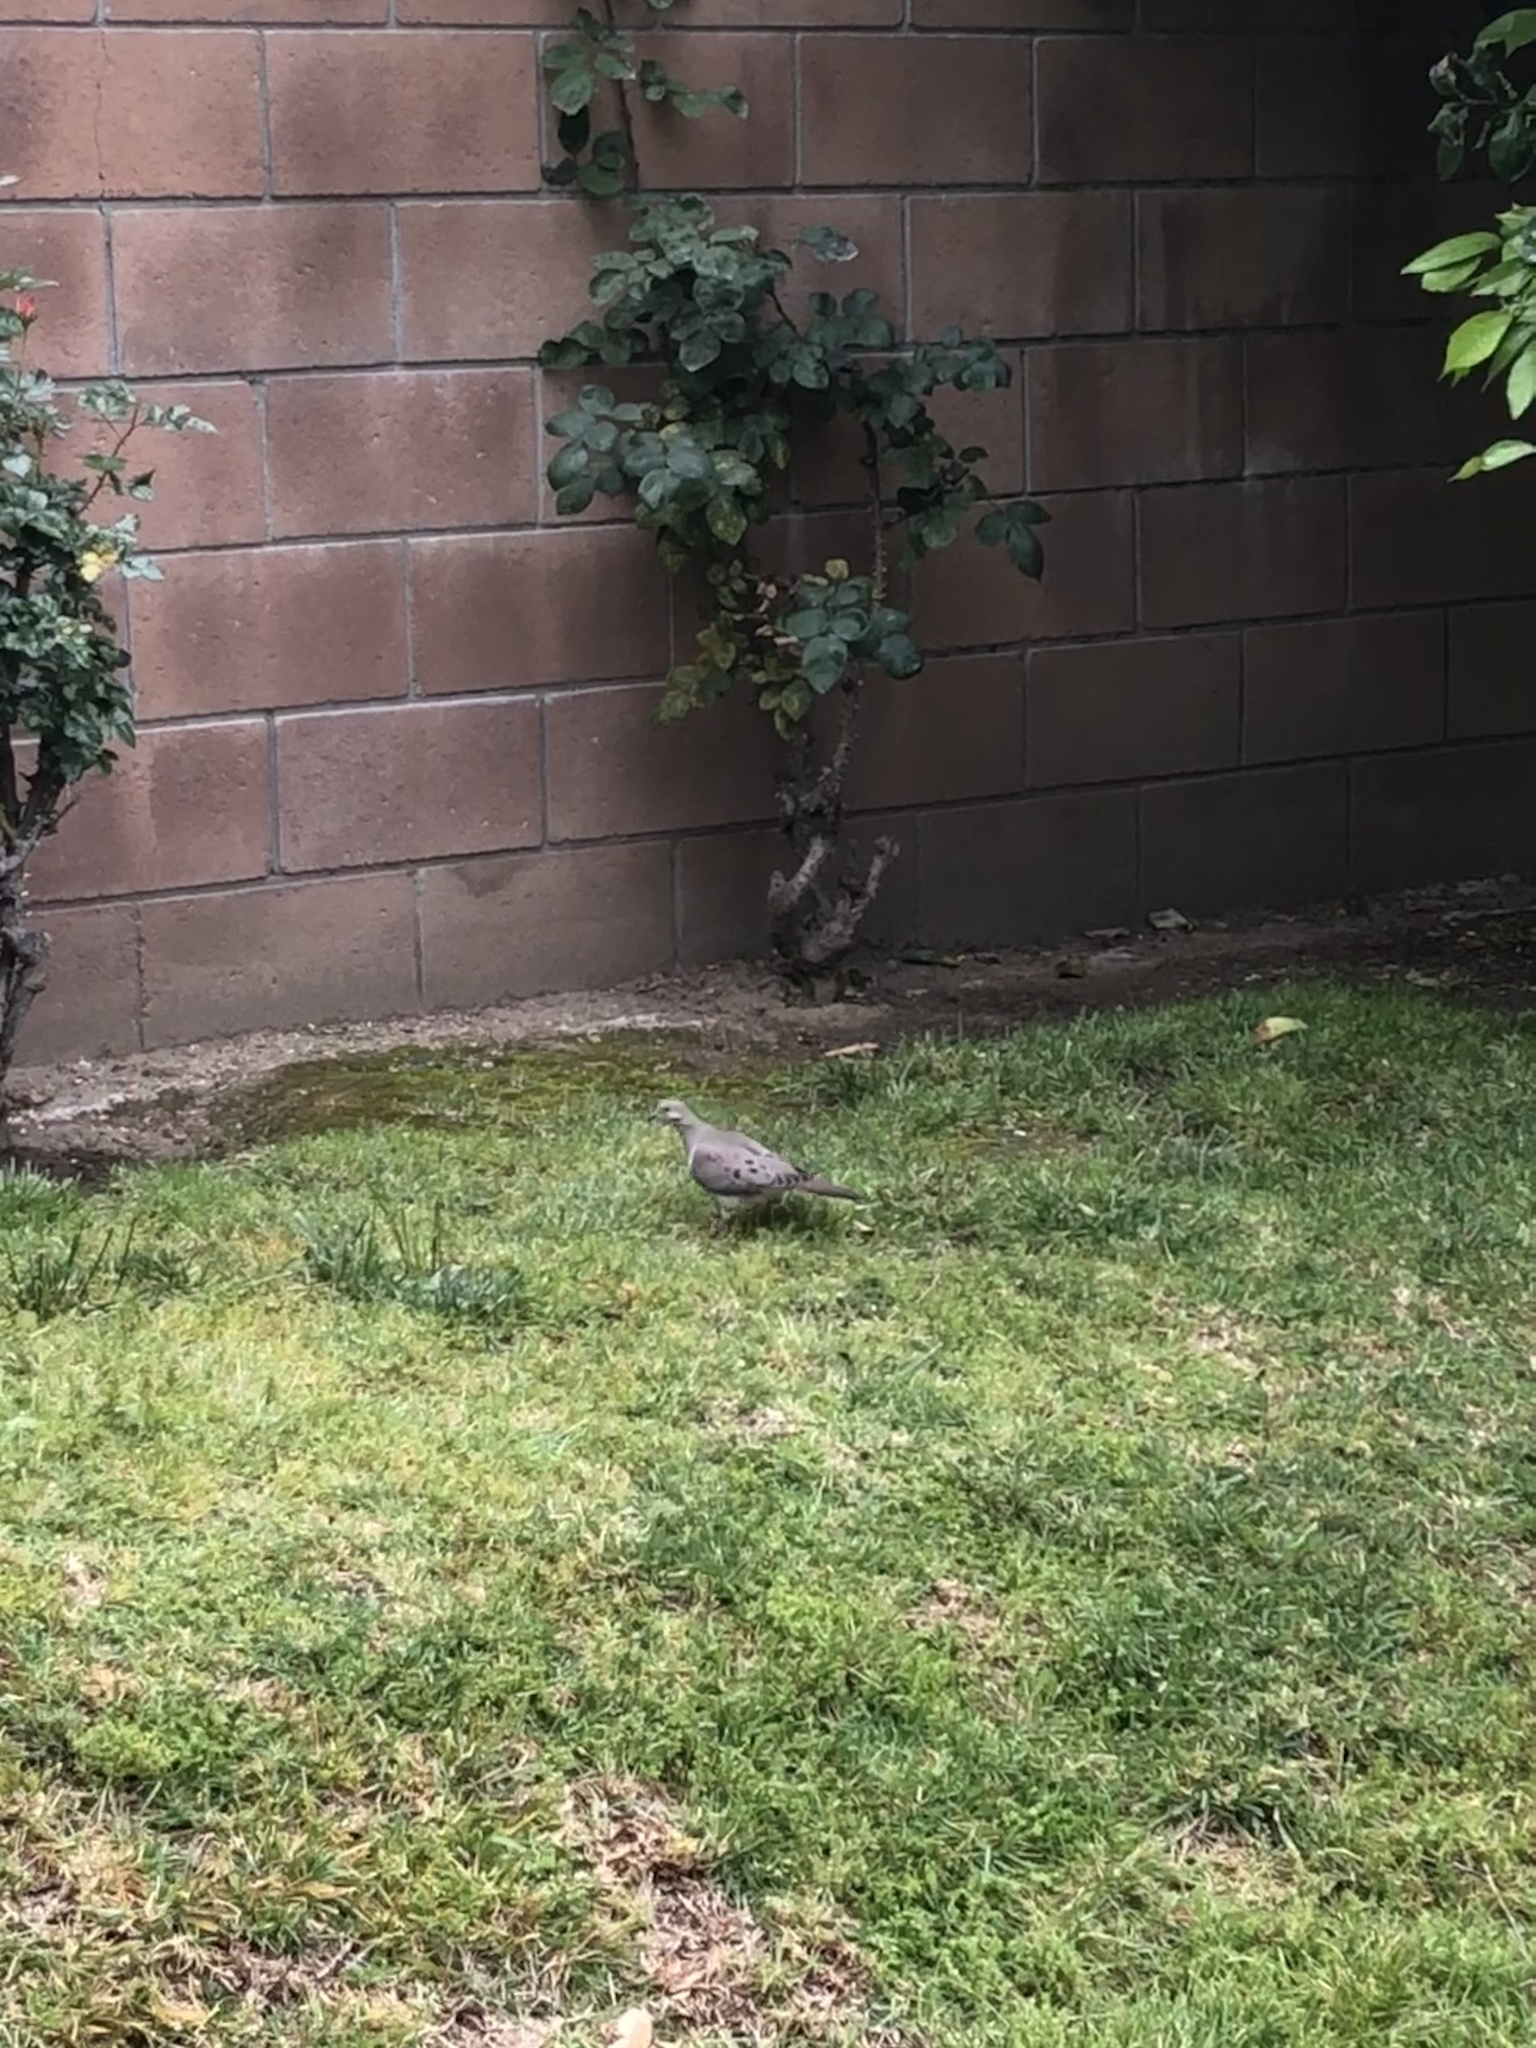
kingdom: Animalia
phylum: Chordata
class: Aves
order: Columbiformes
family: Columbidae
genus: Zenaida
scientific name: Zenaida macroura
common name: Mourning dove
